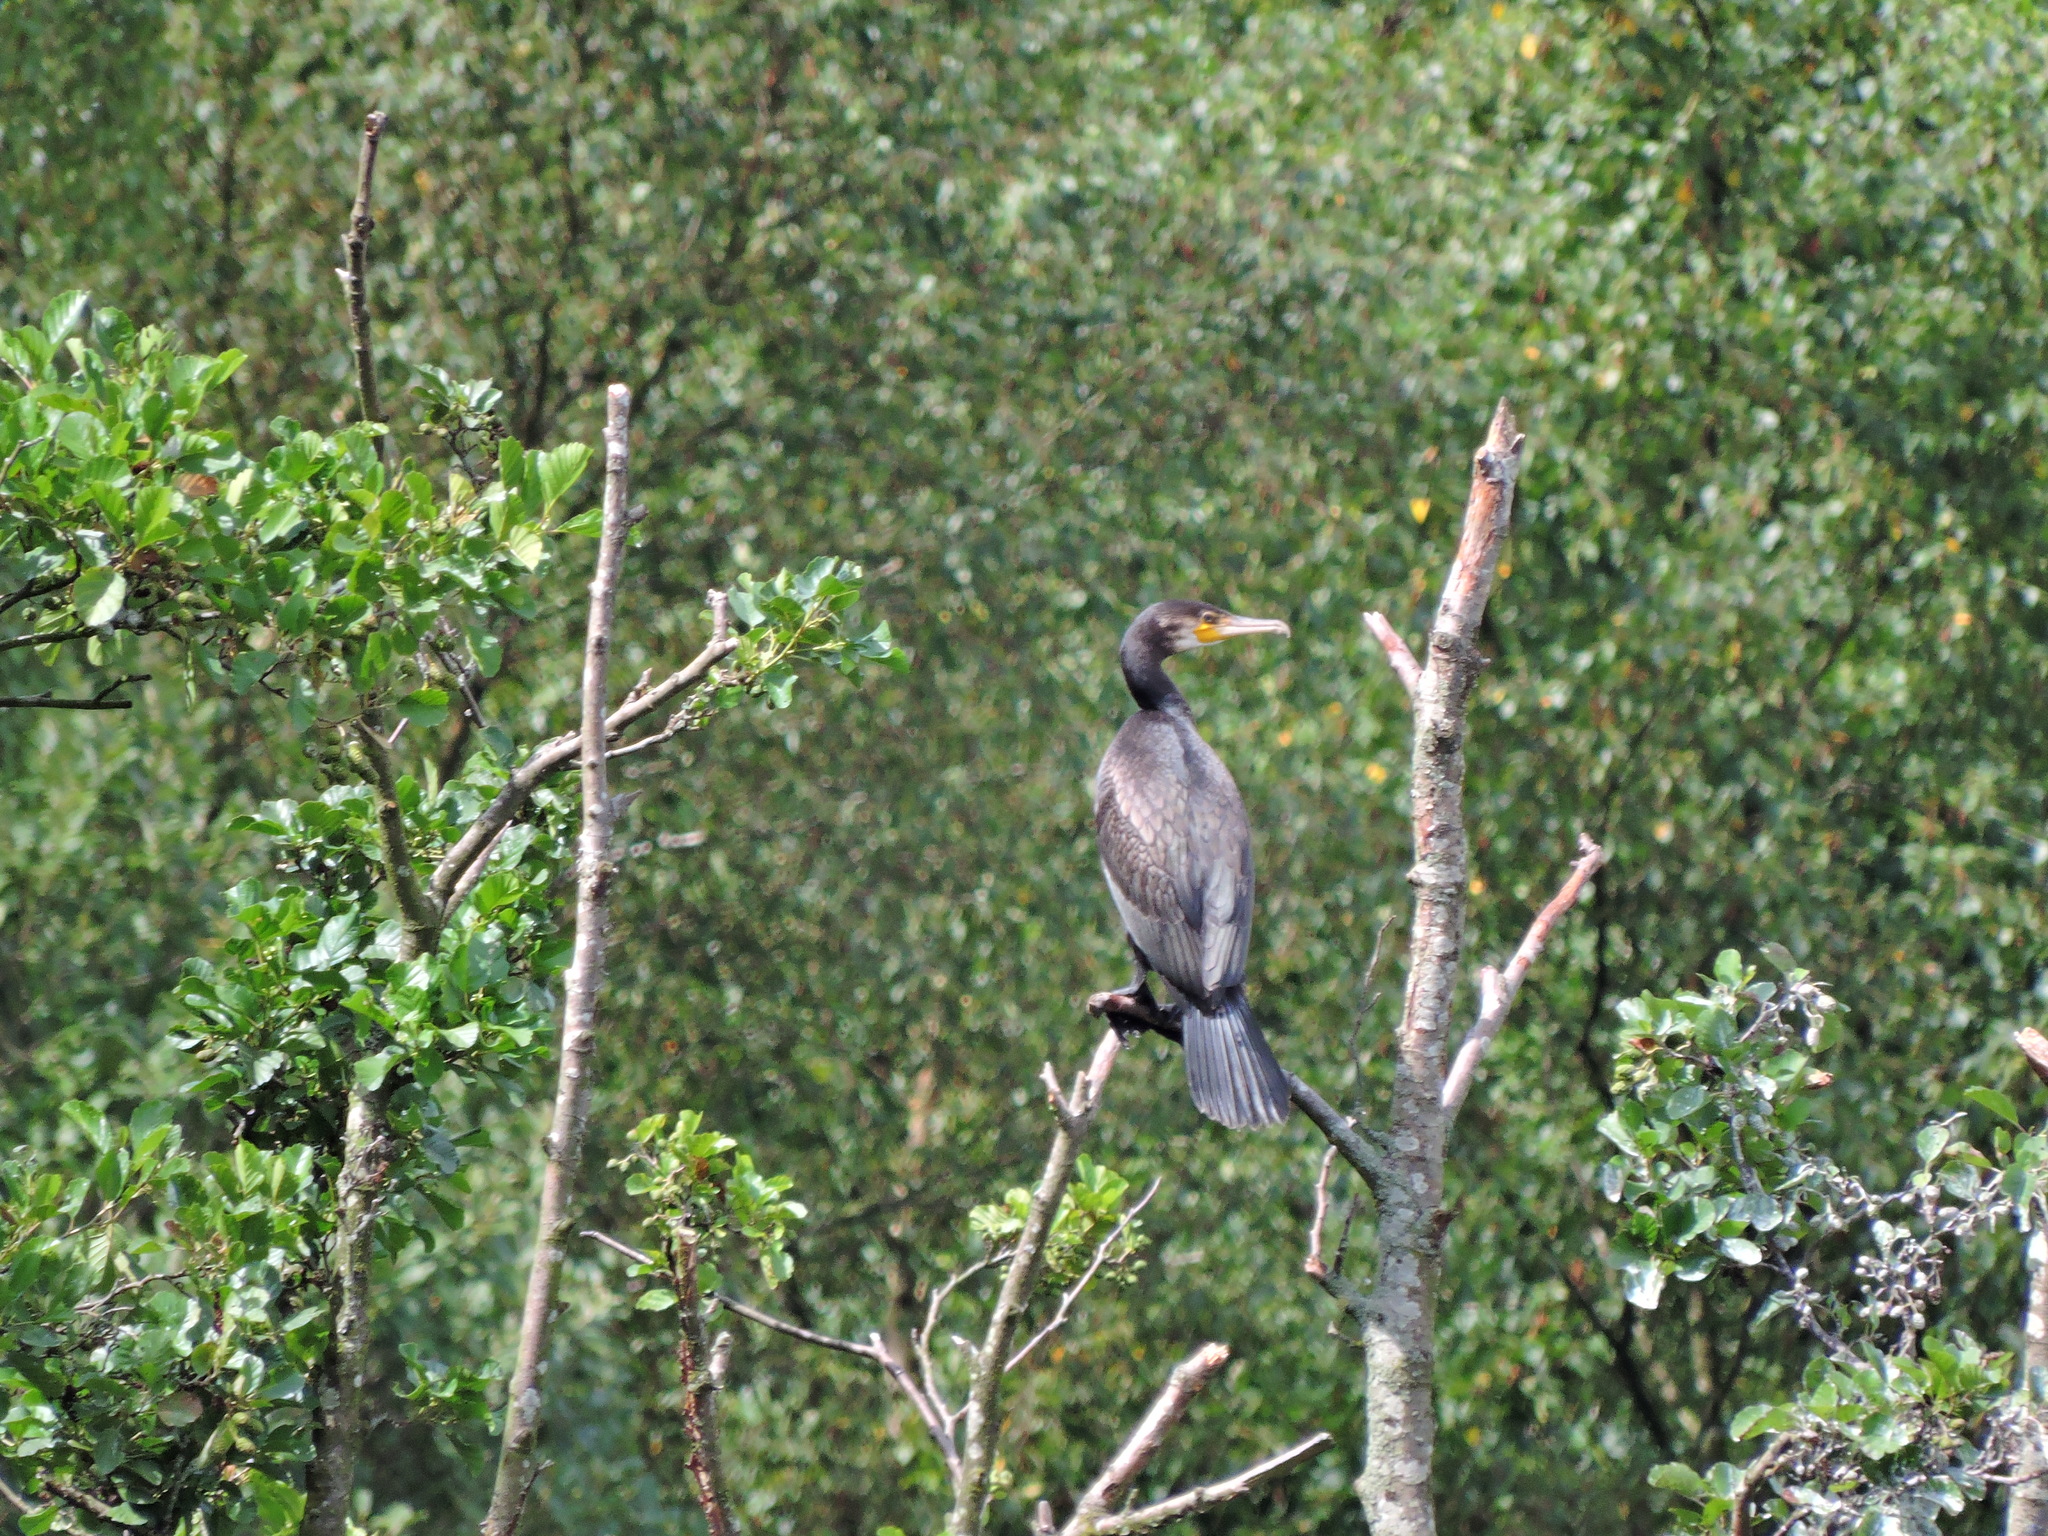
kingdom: Animalia
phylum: Chordata
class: Aves
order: Suliformes
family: Phalacrocoracidae
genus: Phalacrocorax
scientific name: Phalacrocorax carbo
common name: Great cormorant
